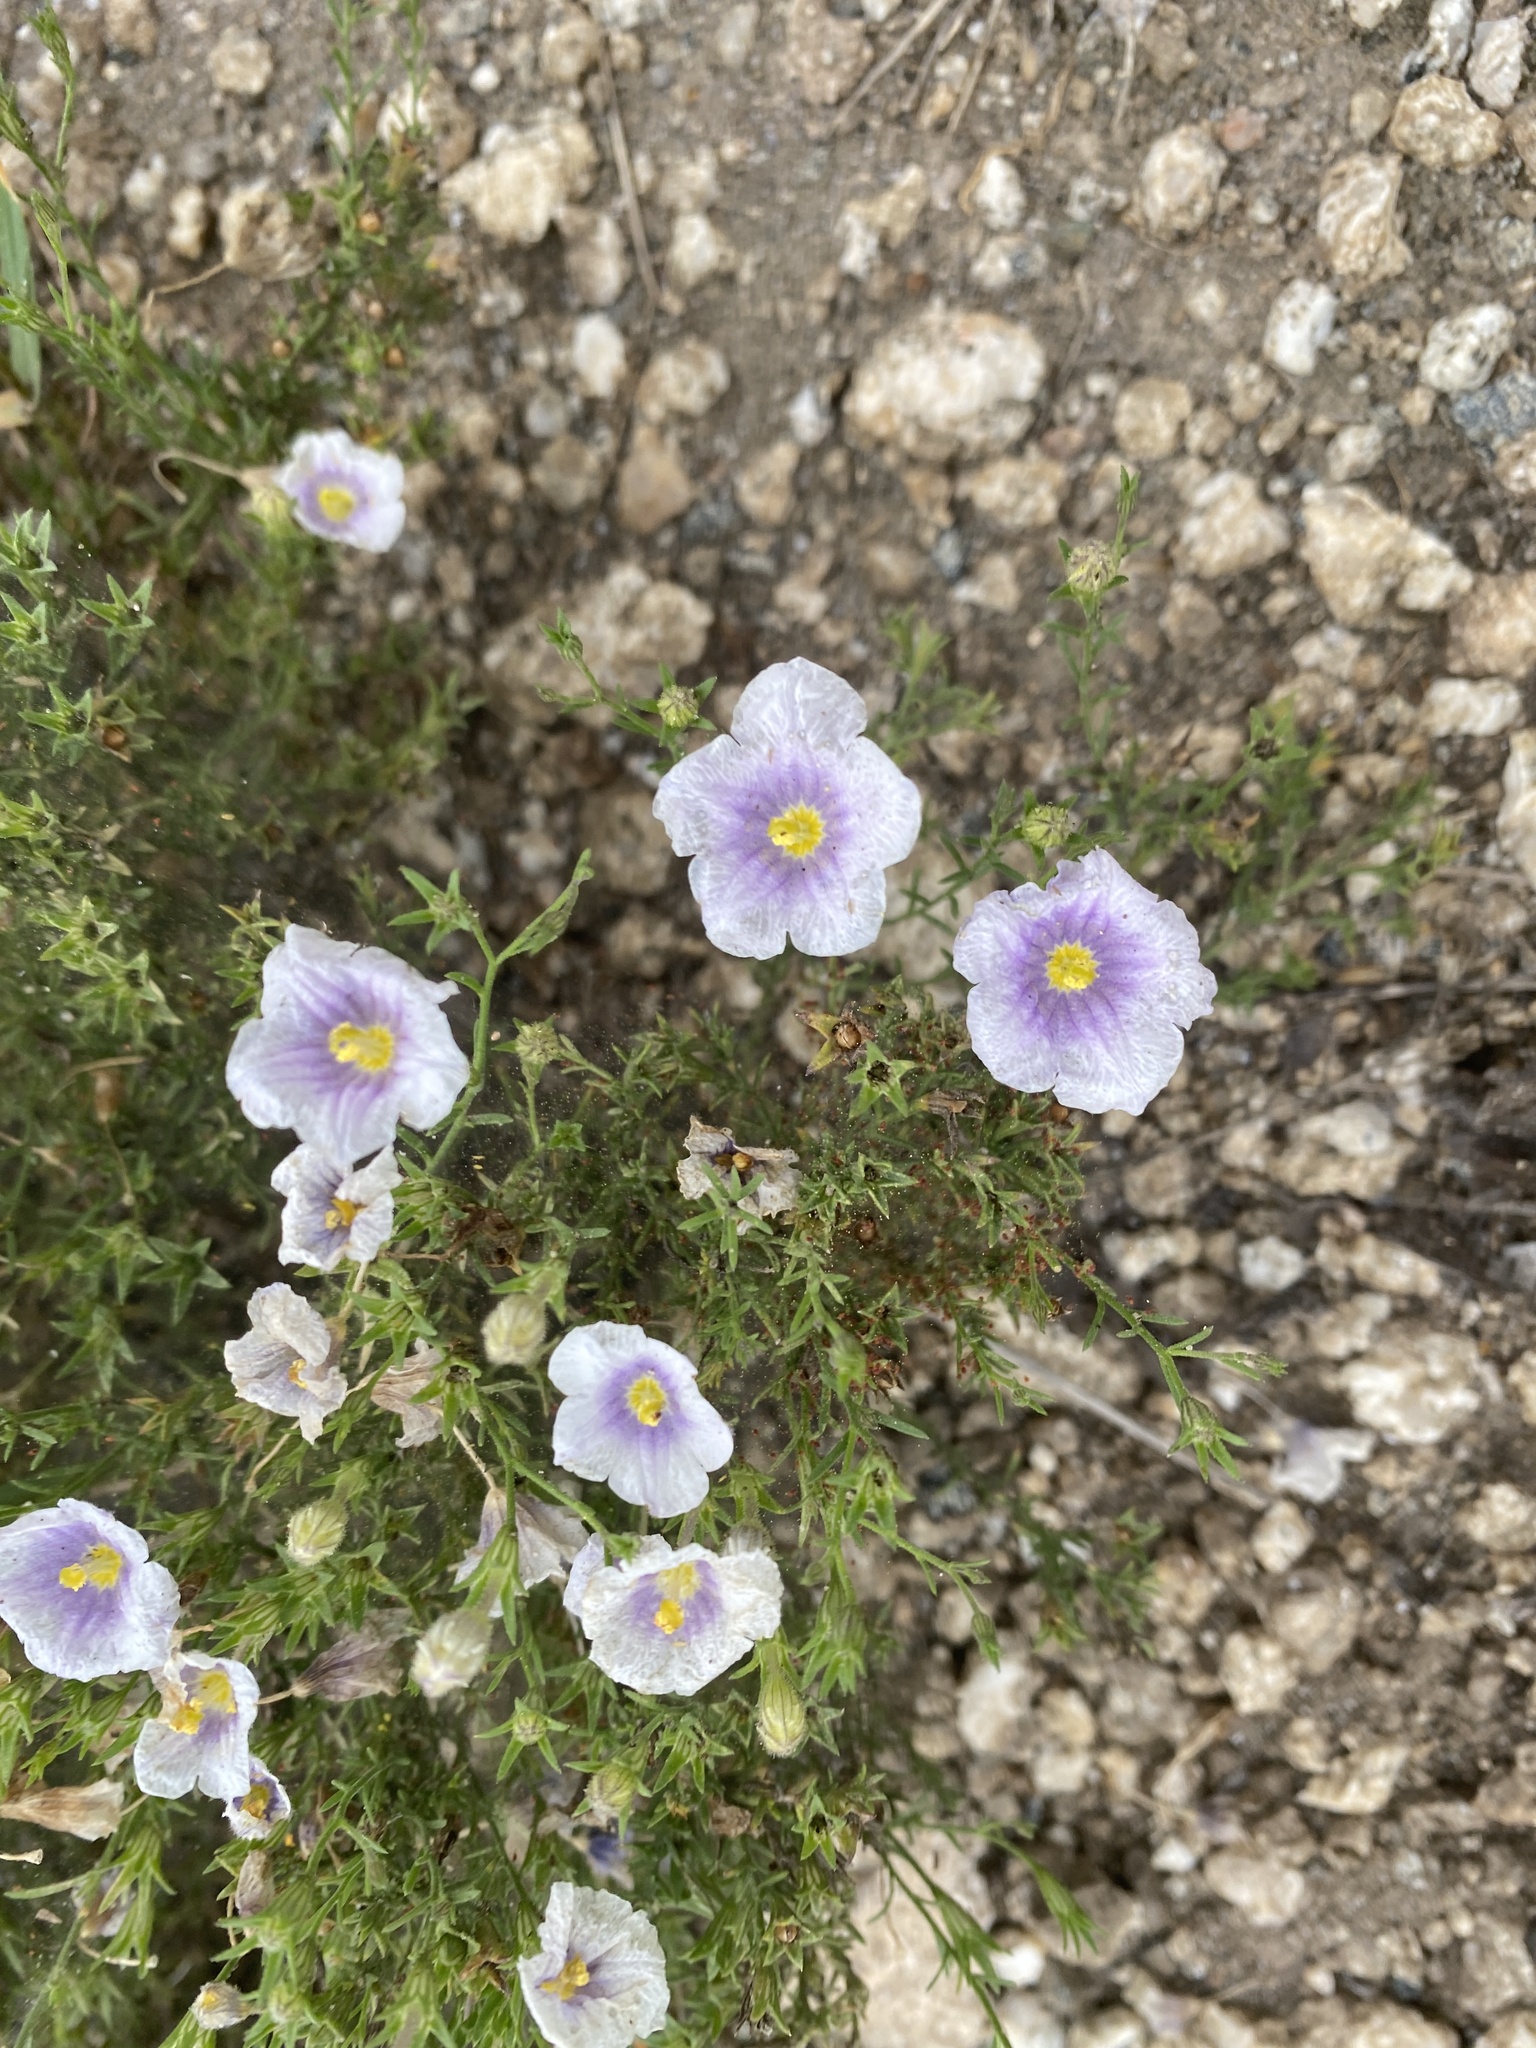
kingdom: Plantae
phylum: Tracheophyta
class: Magnoliopsida
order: Solanales
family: Solanaceae
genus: Nierembergia
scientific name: Nierembergia linariifolia
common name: Dwarf cupflower
